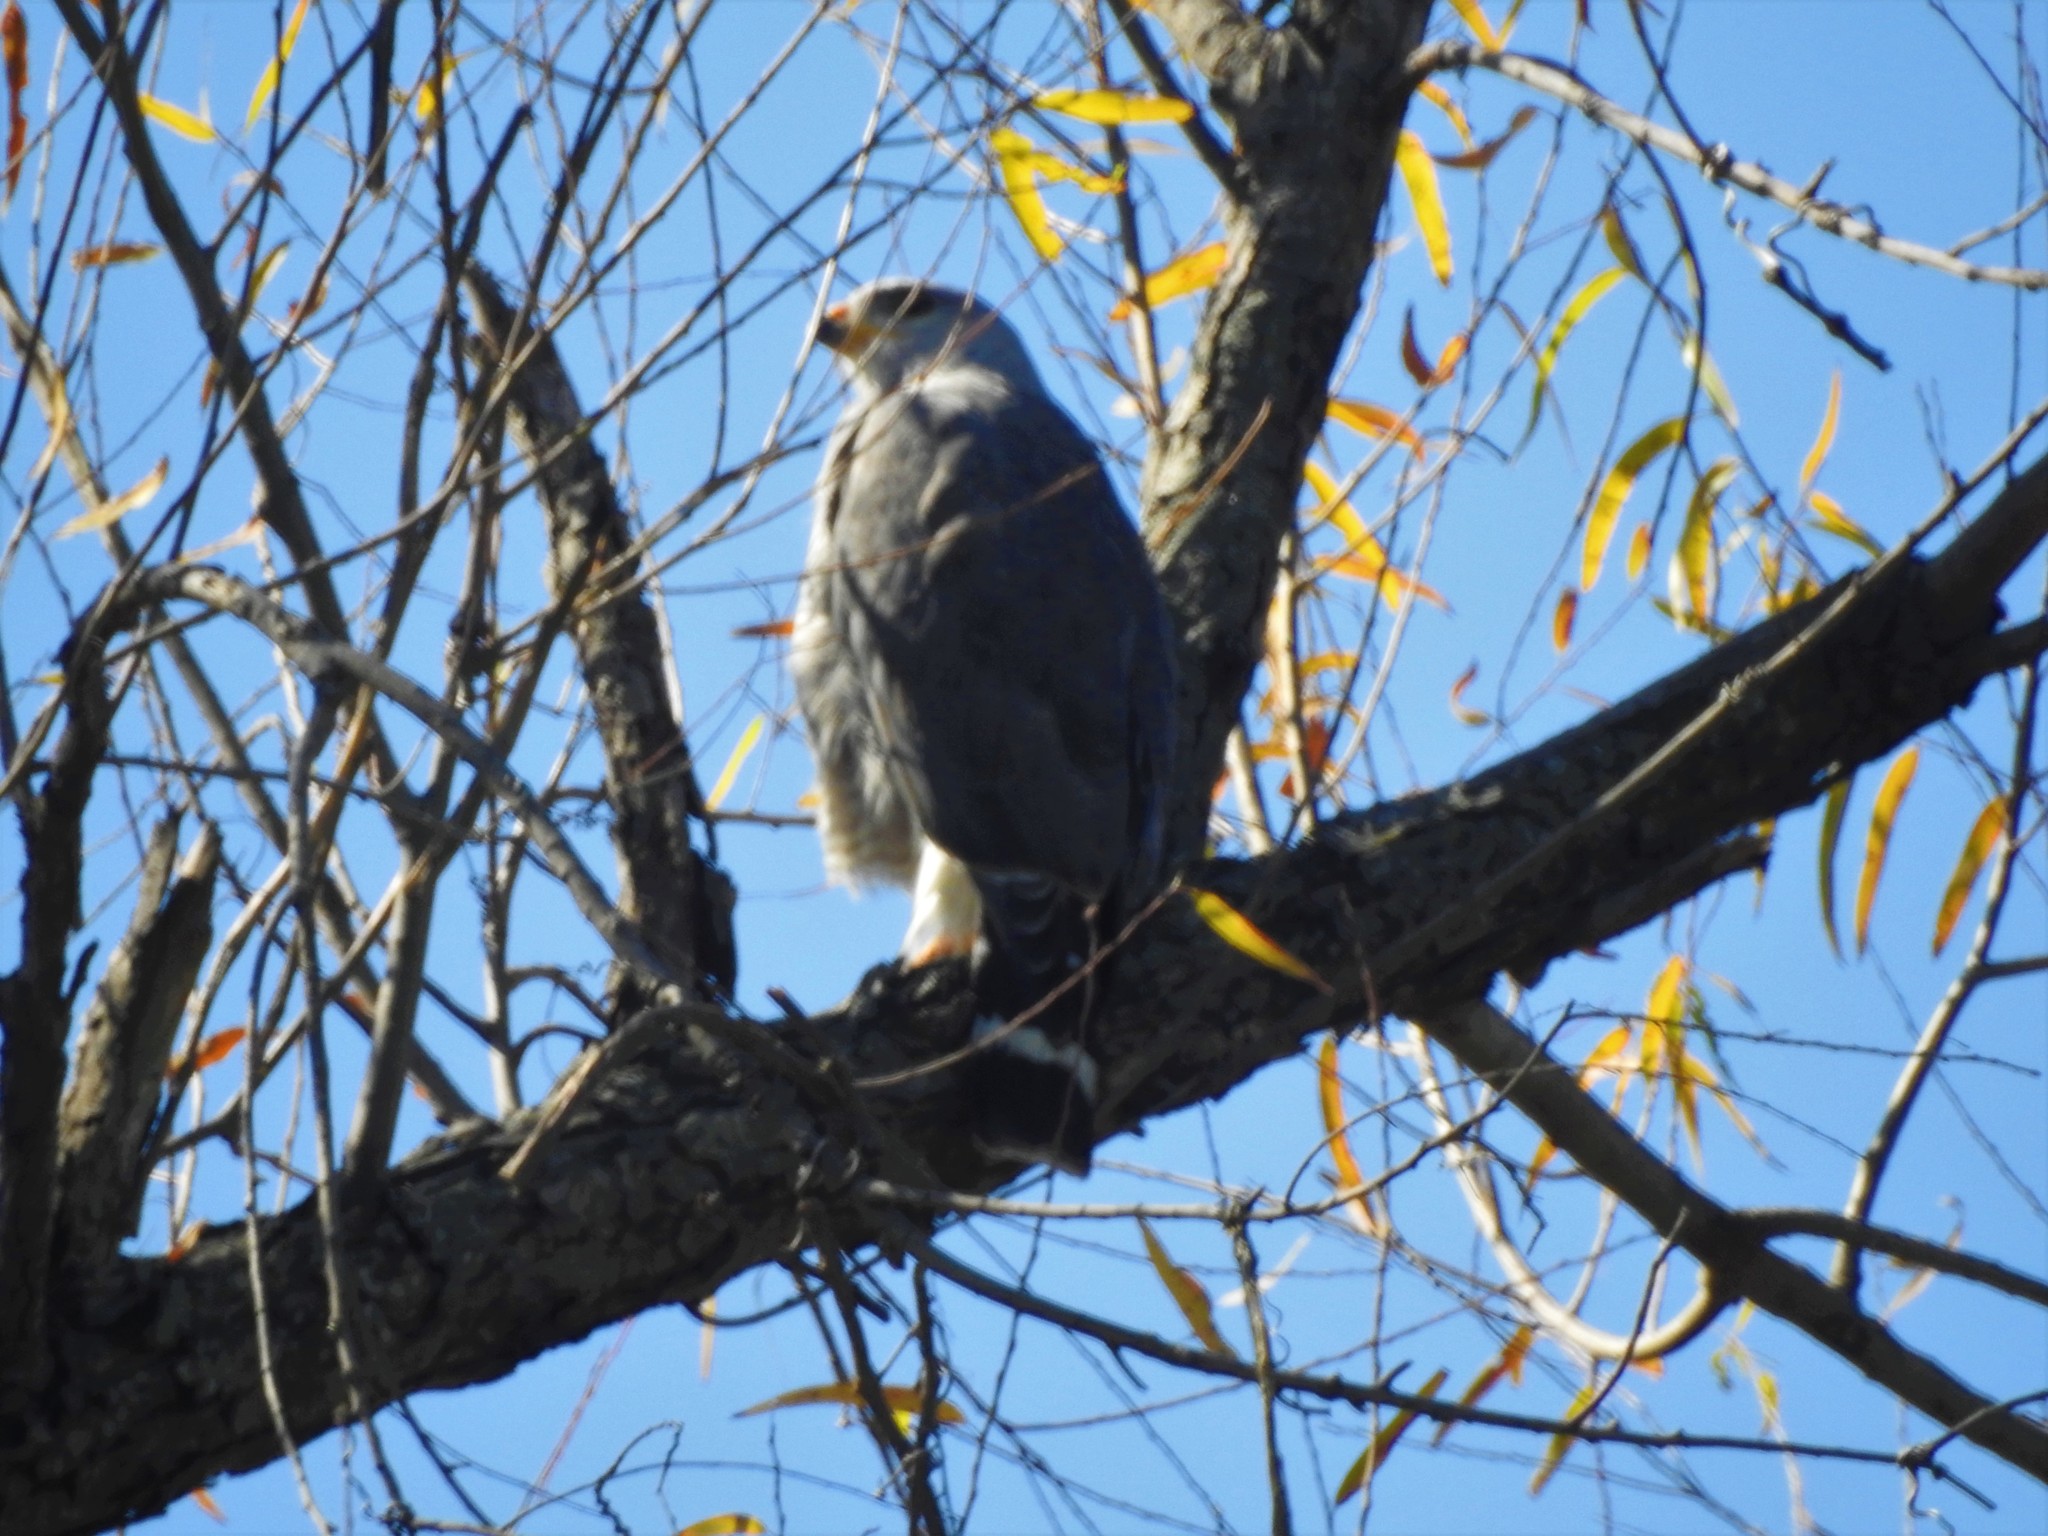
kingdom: Animalia
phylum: Chordata
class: Aves
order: Accipitriformes
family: Accipitridae
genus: Buteo
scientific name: Buteo nitidus
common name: Grey-lined hawk
